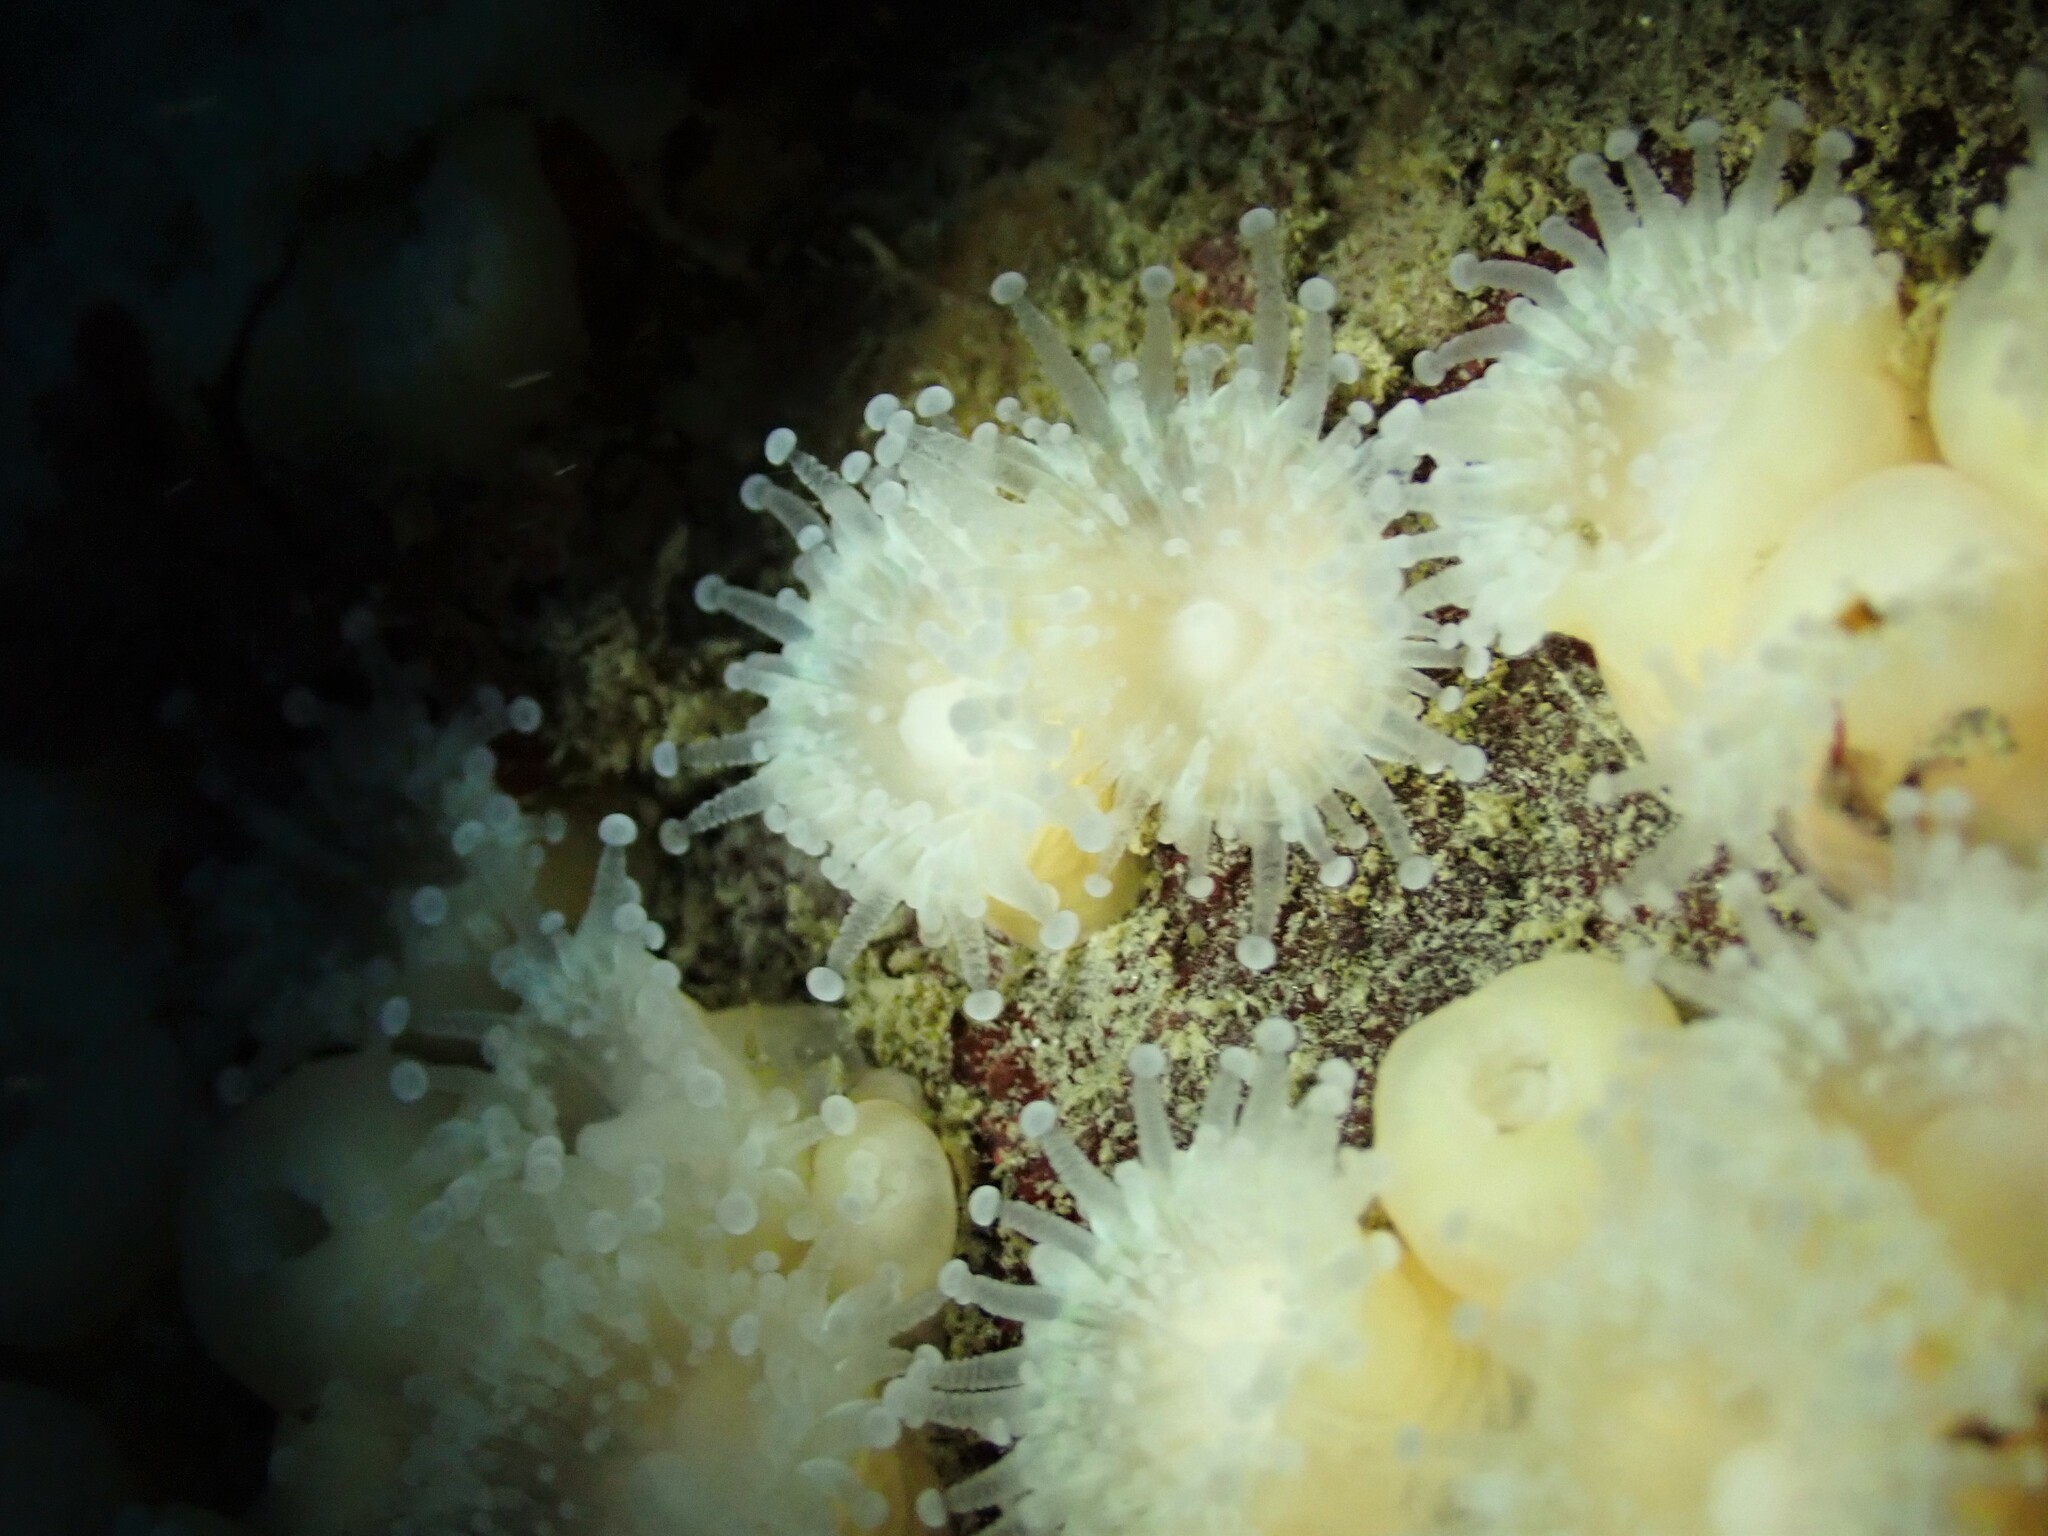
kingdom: Animalia
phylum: Cnidaria
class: Anthozoa
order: Corallimorpharia
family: Corallimorphidae
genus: Corynactis
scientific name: Corynactis australis
